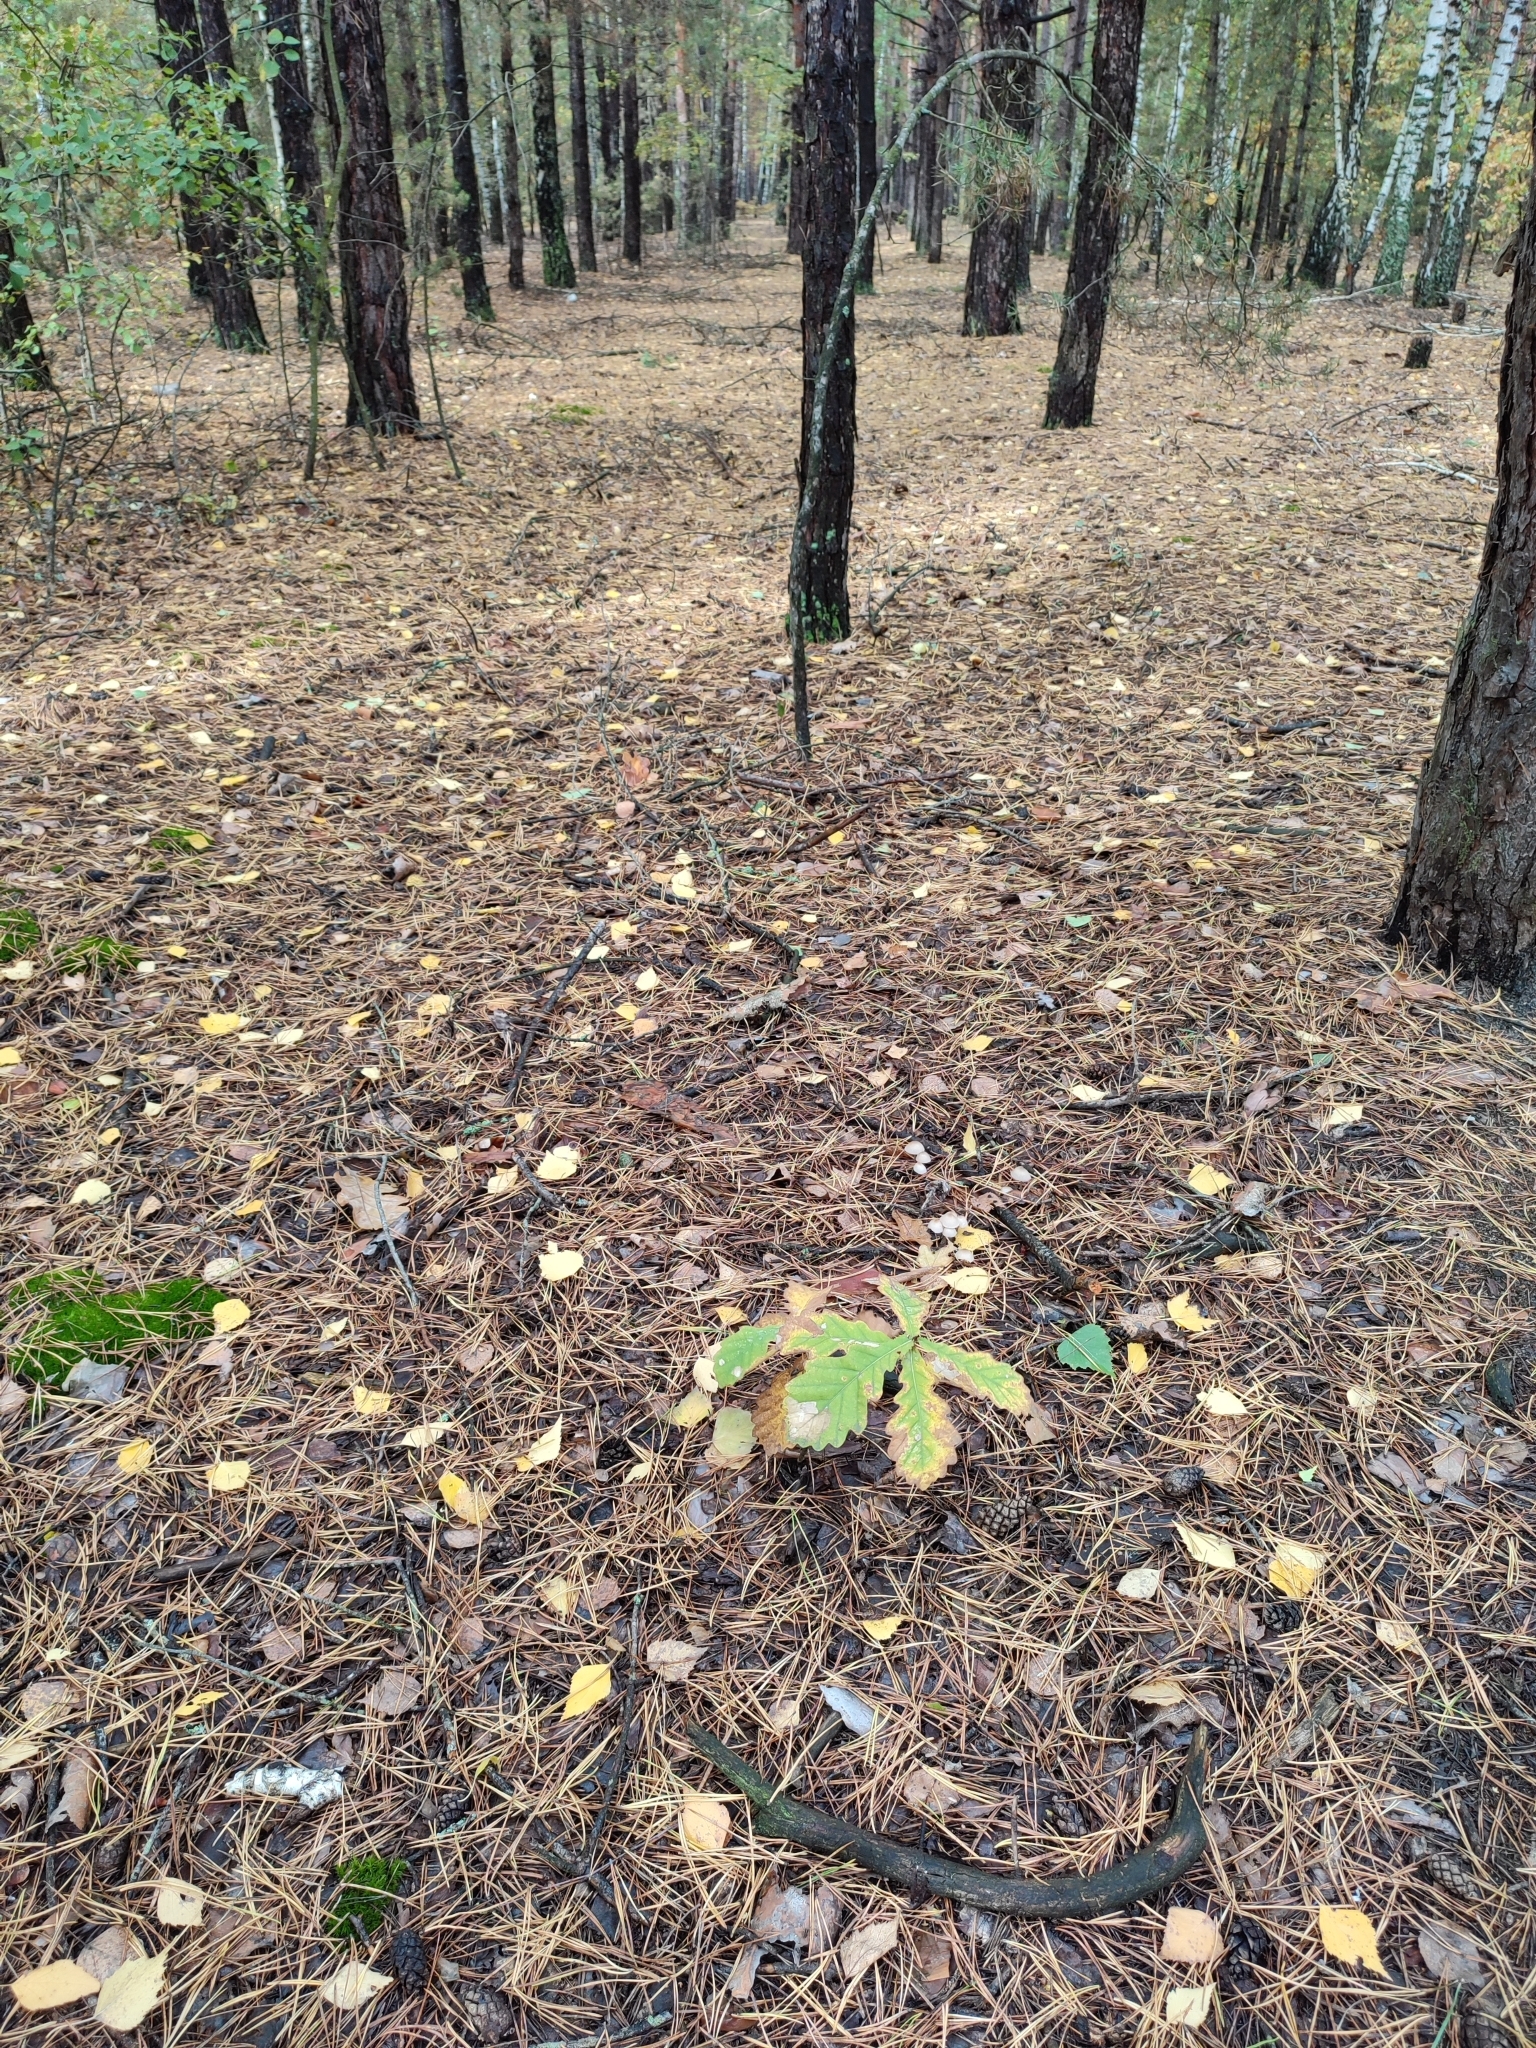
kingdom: Plantae
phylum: Tracheophyta
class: Magnoliopsida
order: Fagales
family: Fagaceae
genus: Quercus
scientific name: Quercus robur
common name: Pedunculate oak
